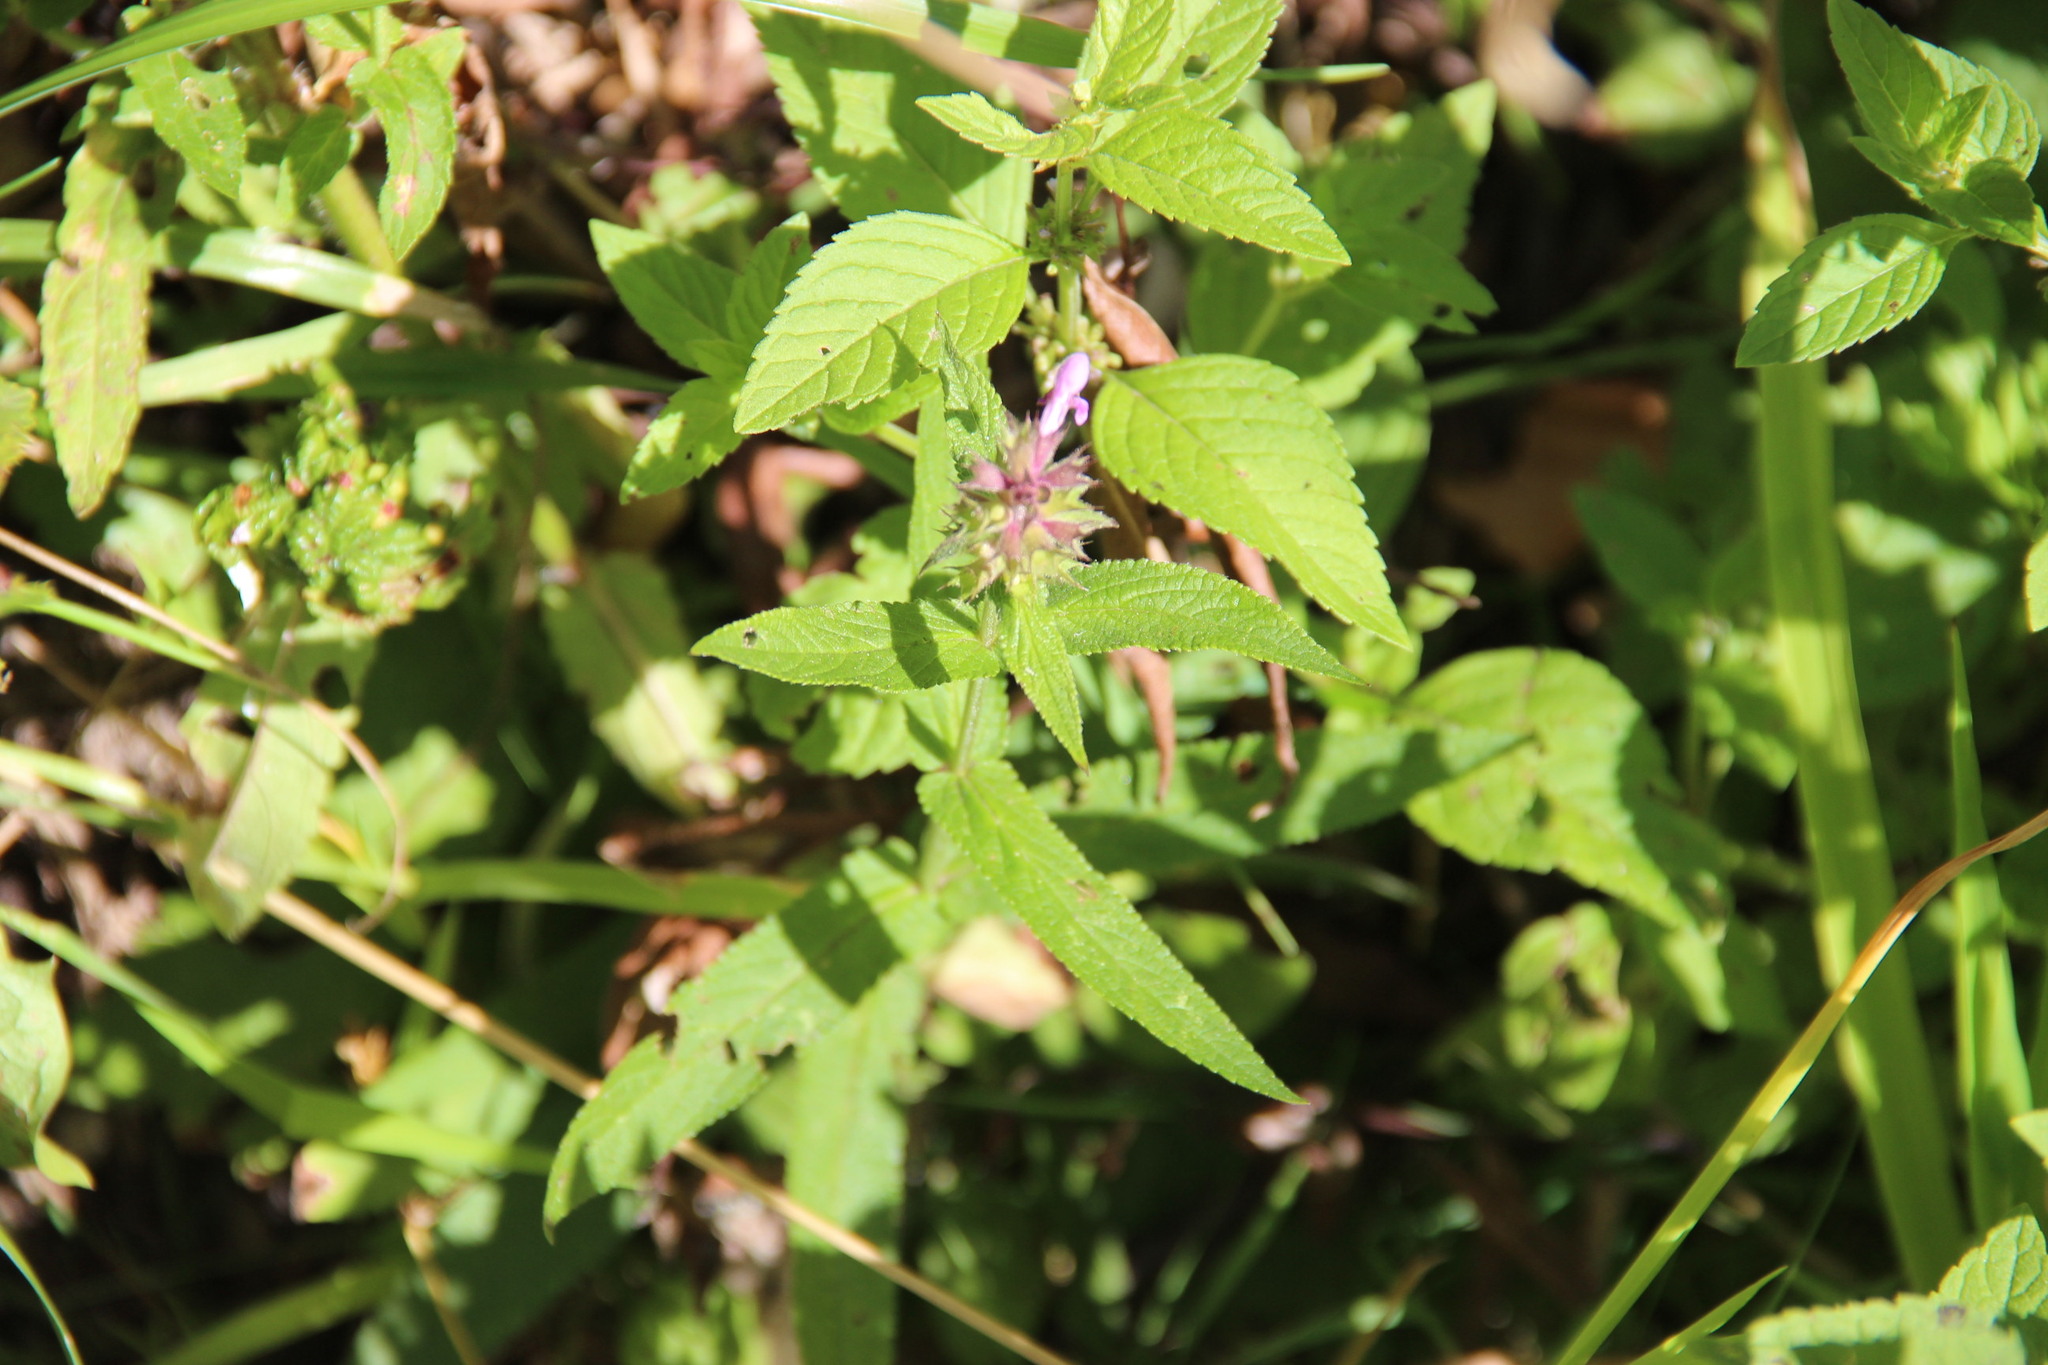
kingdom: Plantae
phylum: Tracheophyta
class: Magnoliopsida
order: Lamiales
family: Lamiaceae
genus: Stachys
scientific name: Stachys palustris
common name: Marsh woundwort
